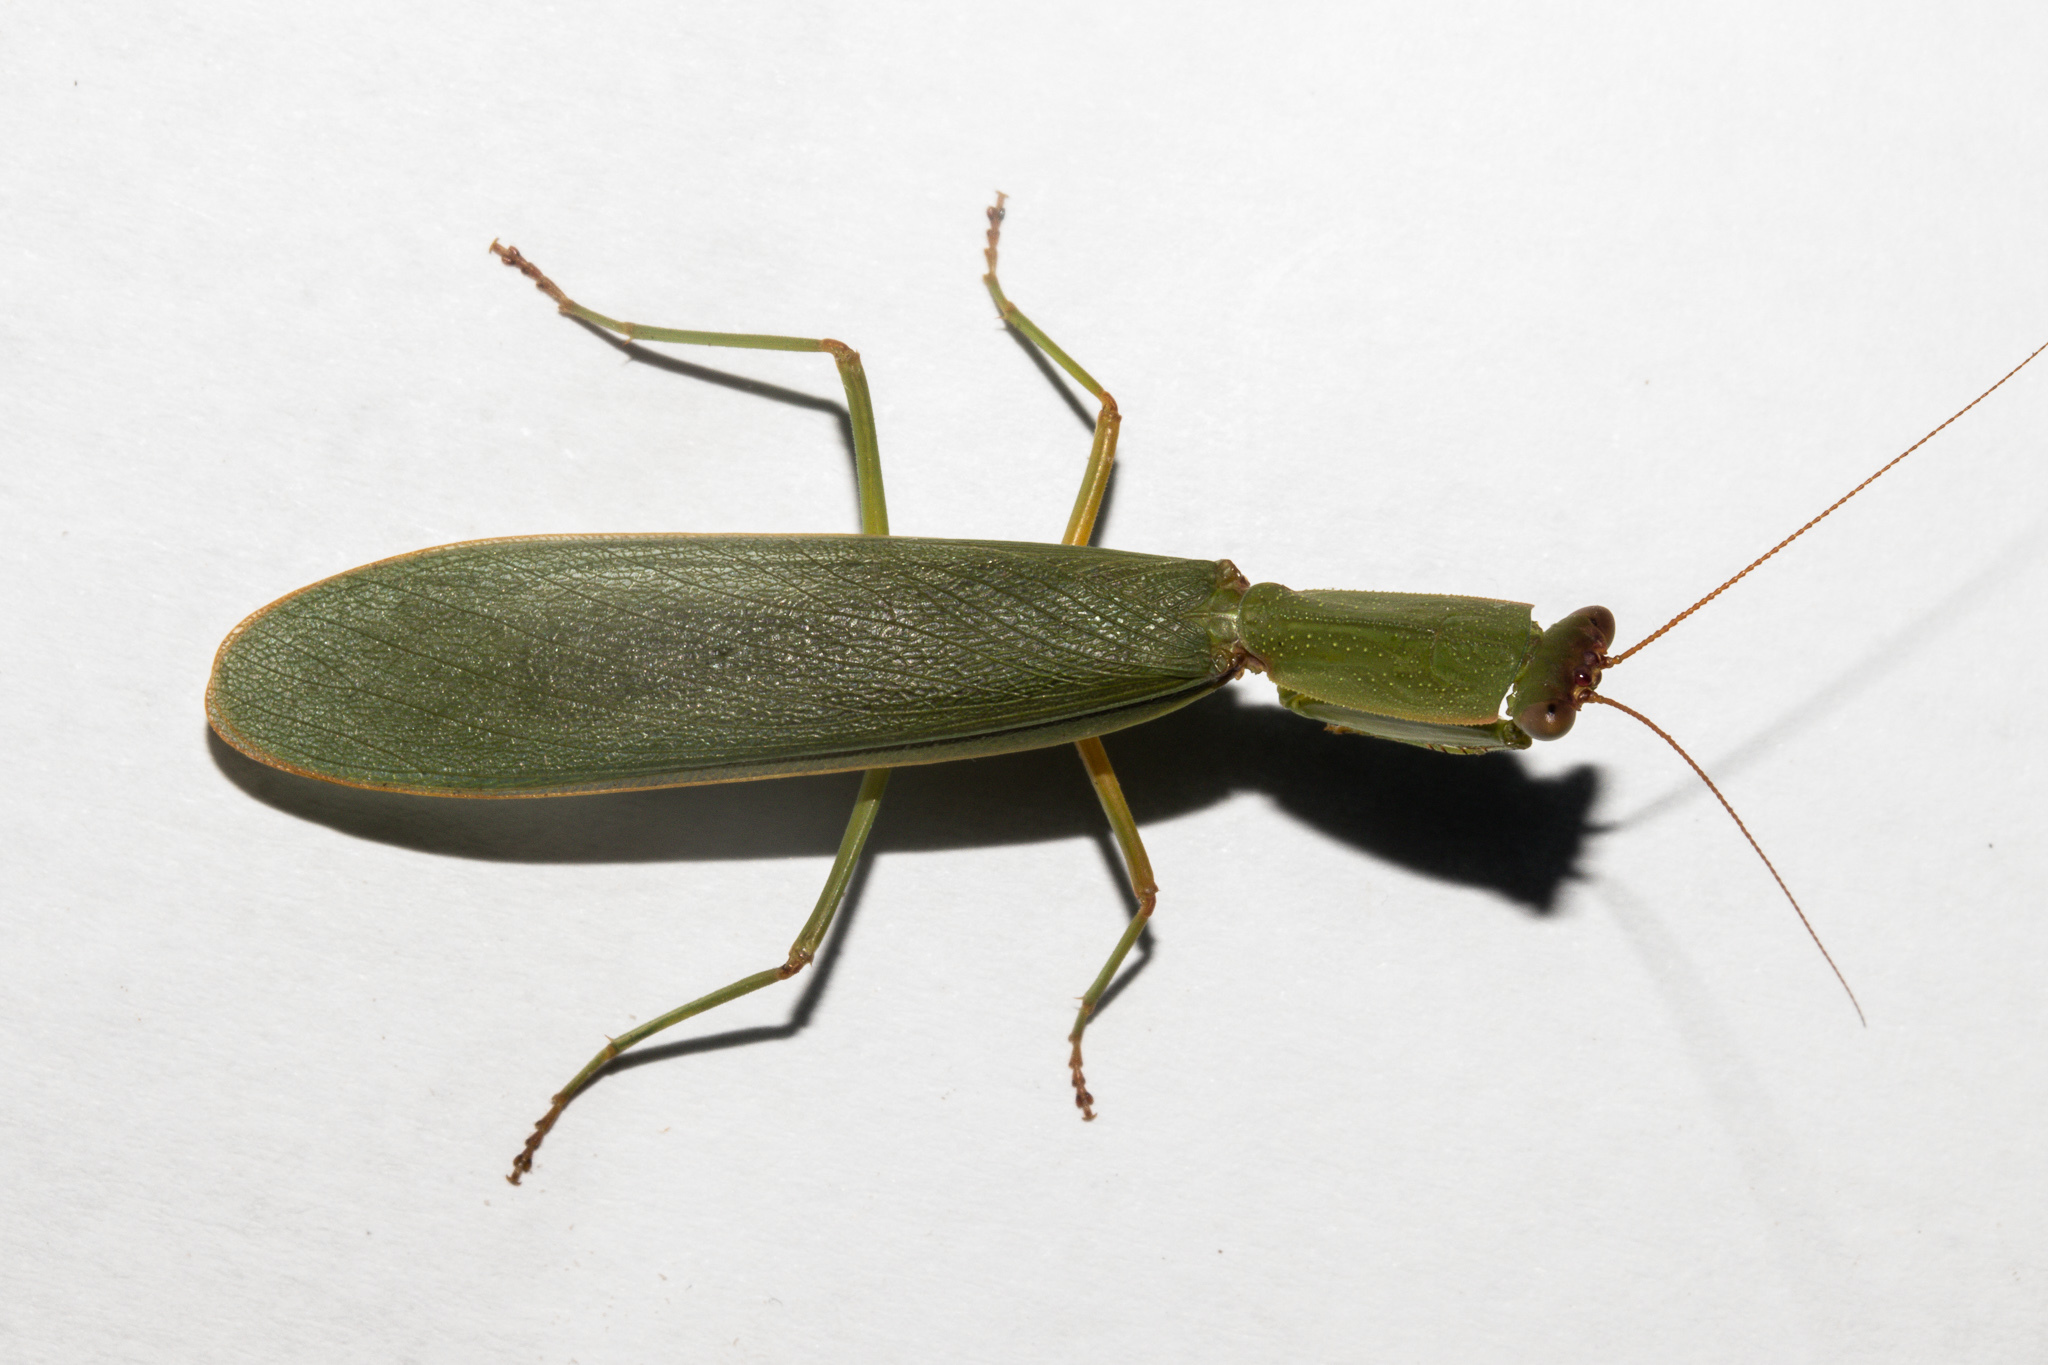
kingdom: Animalia
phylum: Arthropoda
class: Insecta
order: Mantodea
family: Mantidae
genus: Orthodera
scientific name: Orthodera novaezealandiae
